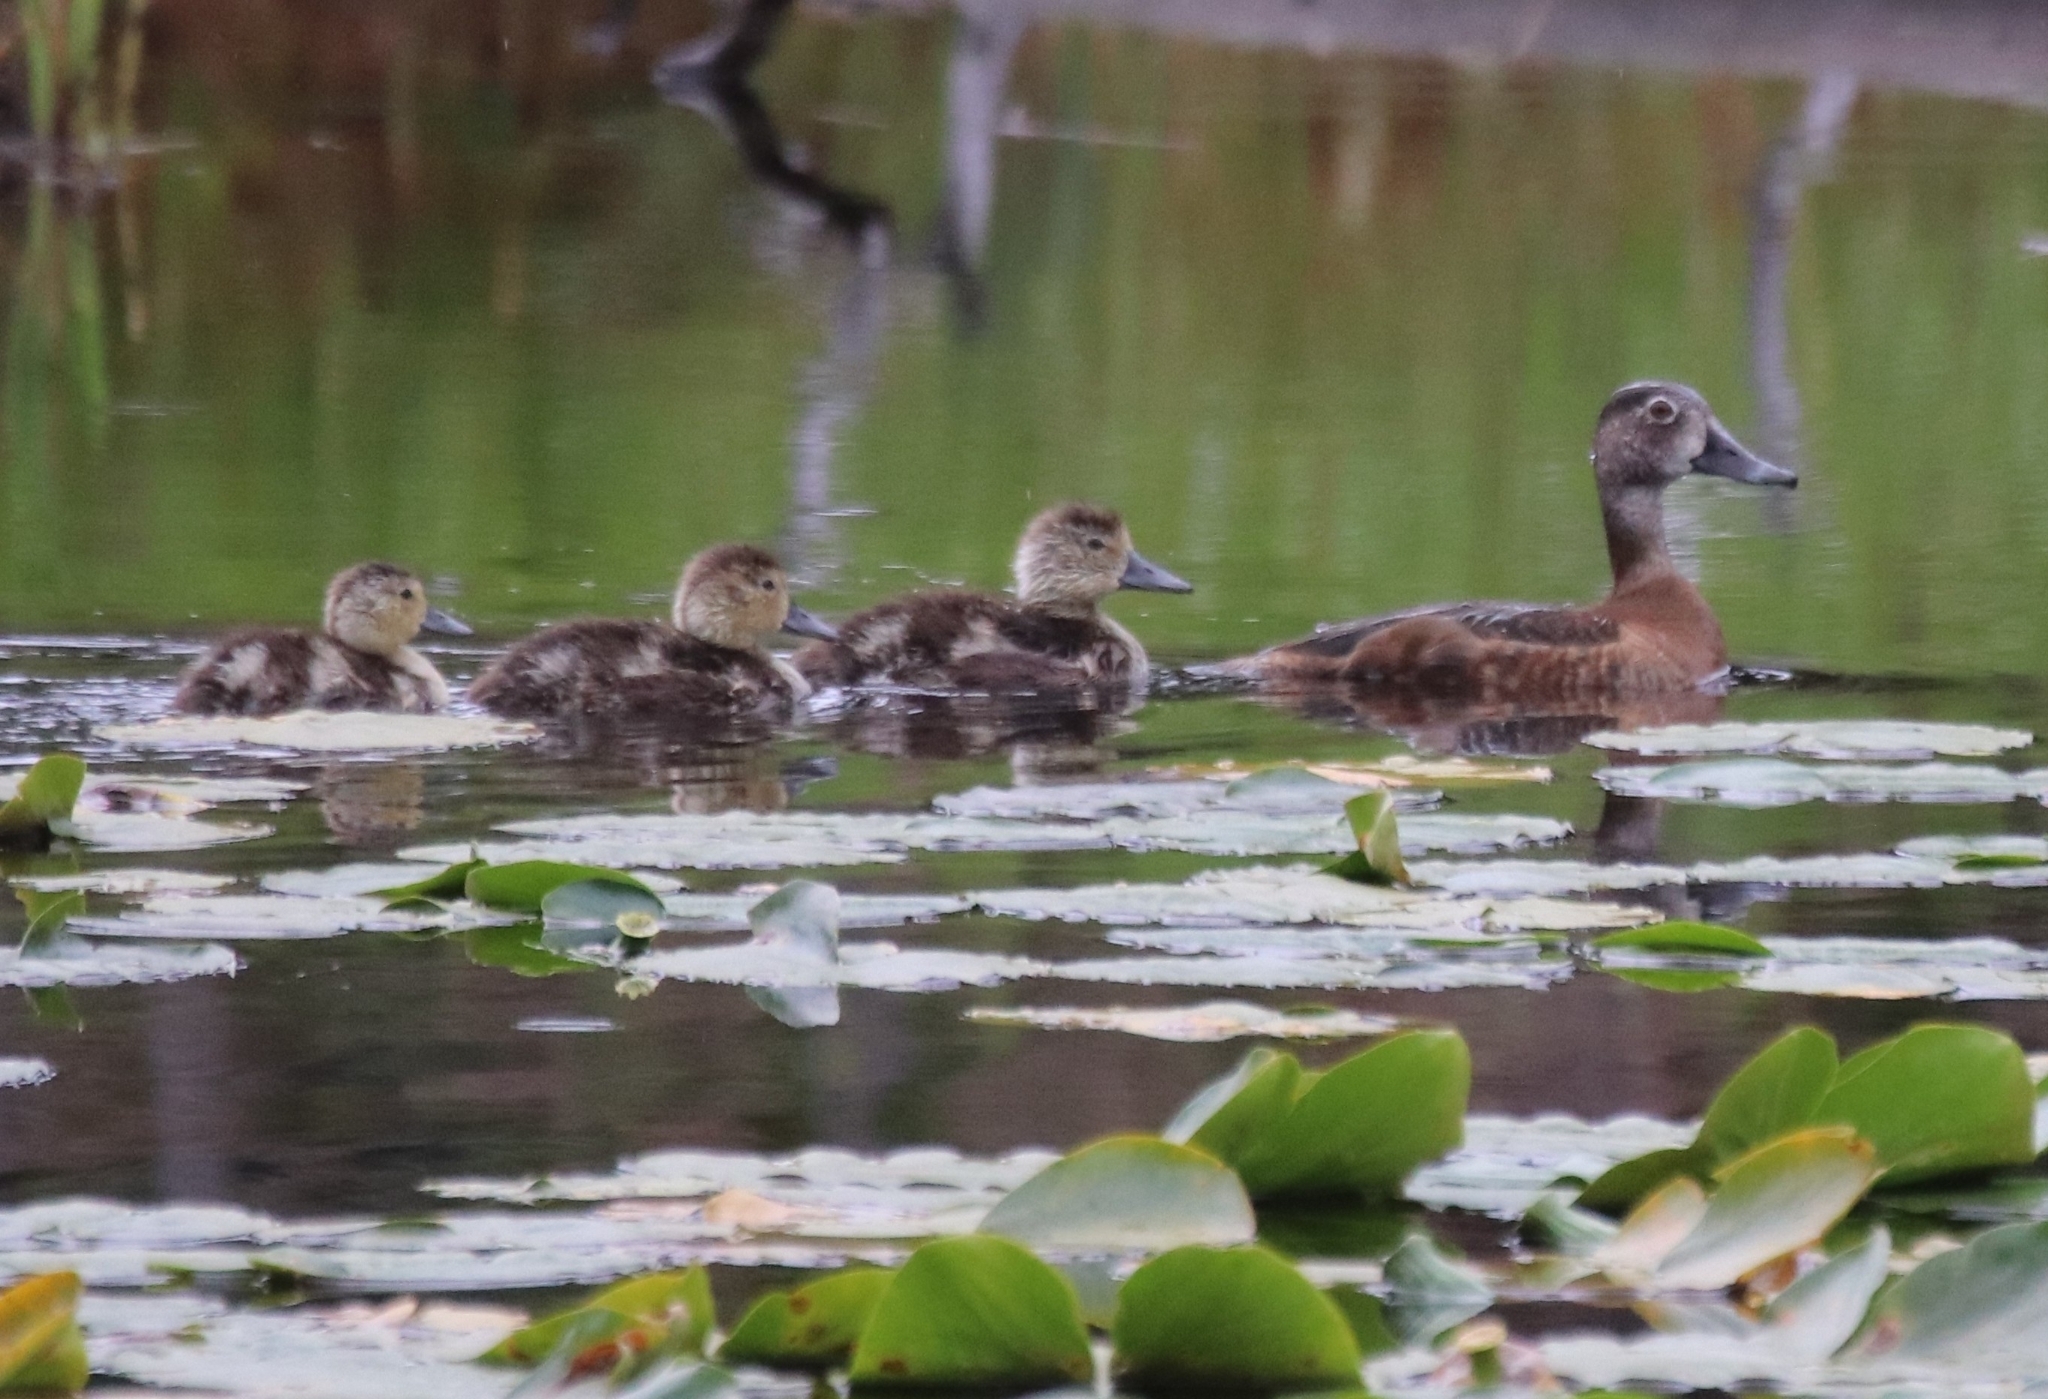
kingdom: Animalia
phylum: Chordata
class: Aves
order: Anseriformes
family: Anatidae
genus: Aythya
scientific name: Aythya collaris
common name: Ring-necked duck
